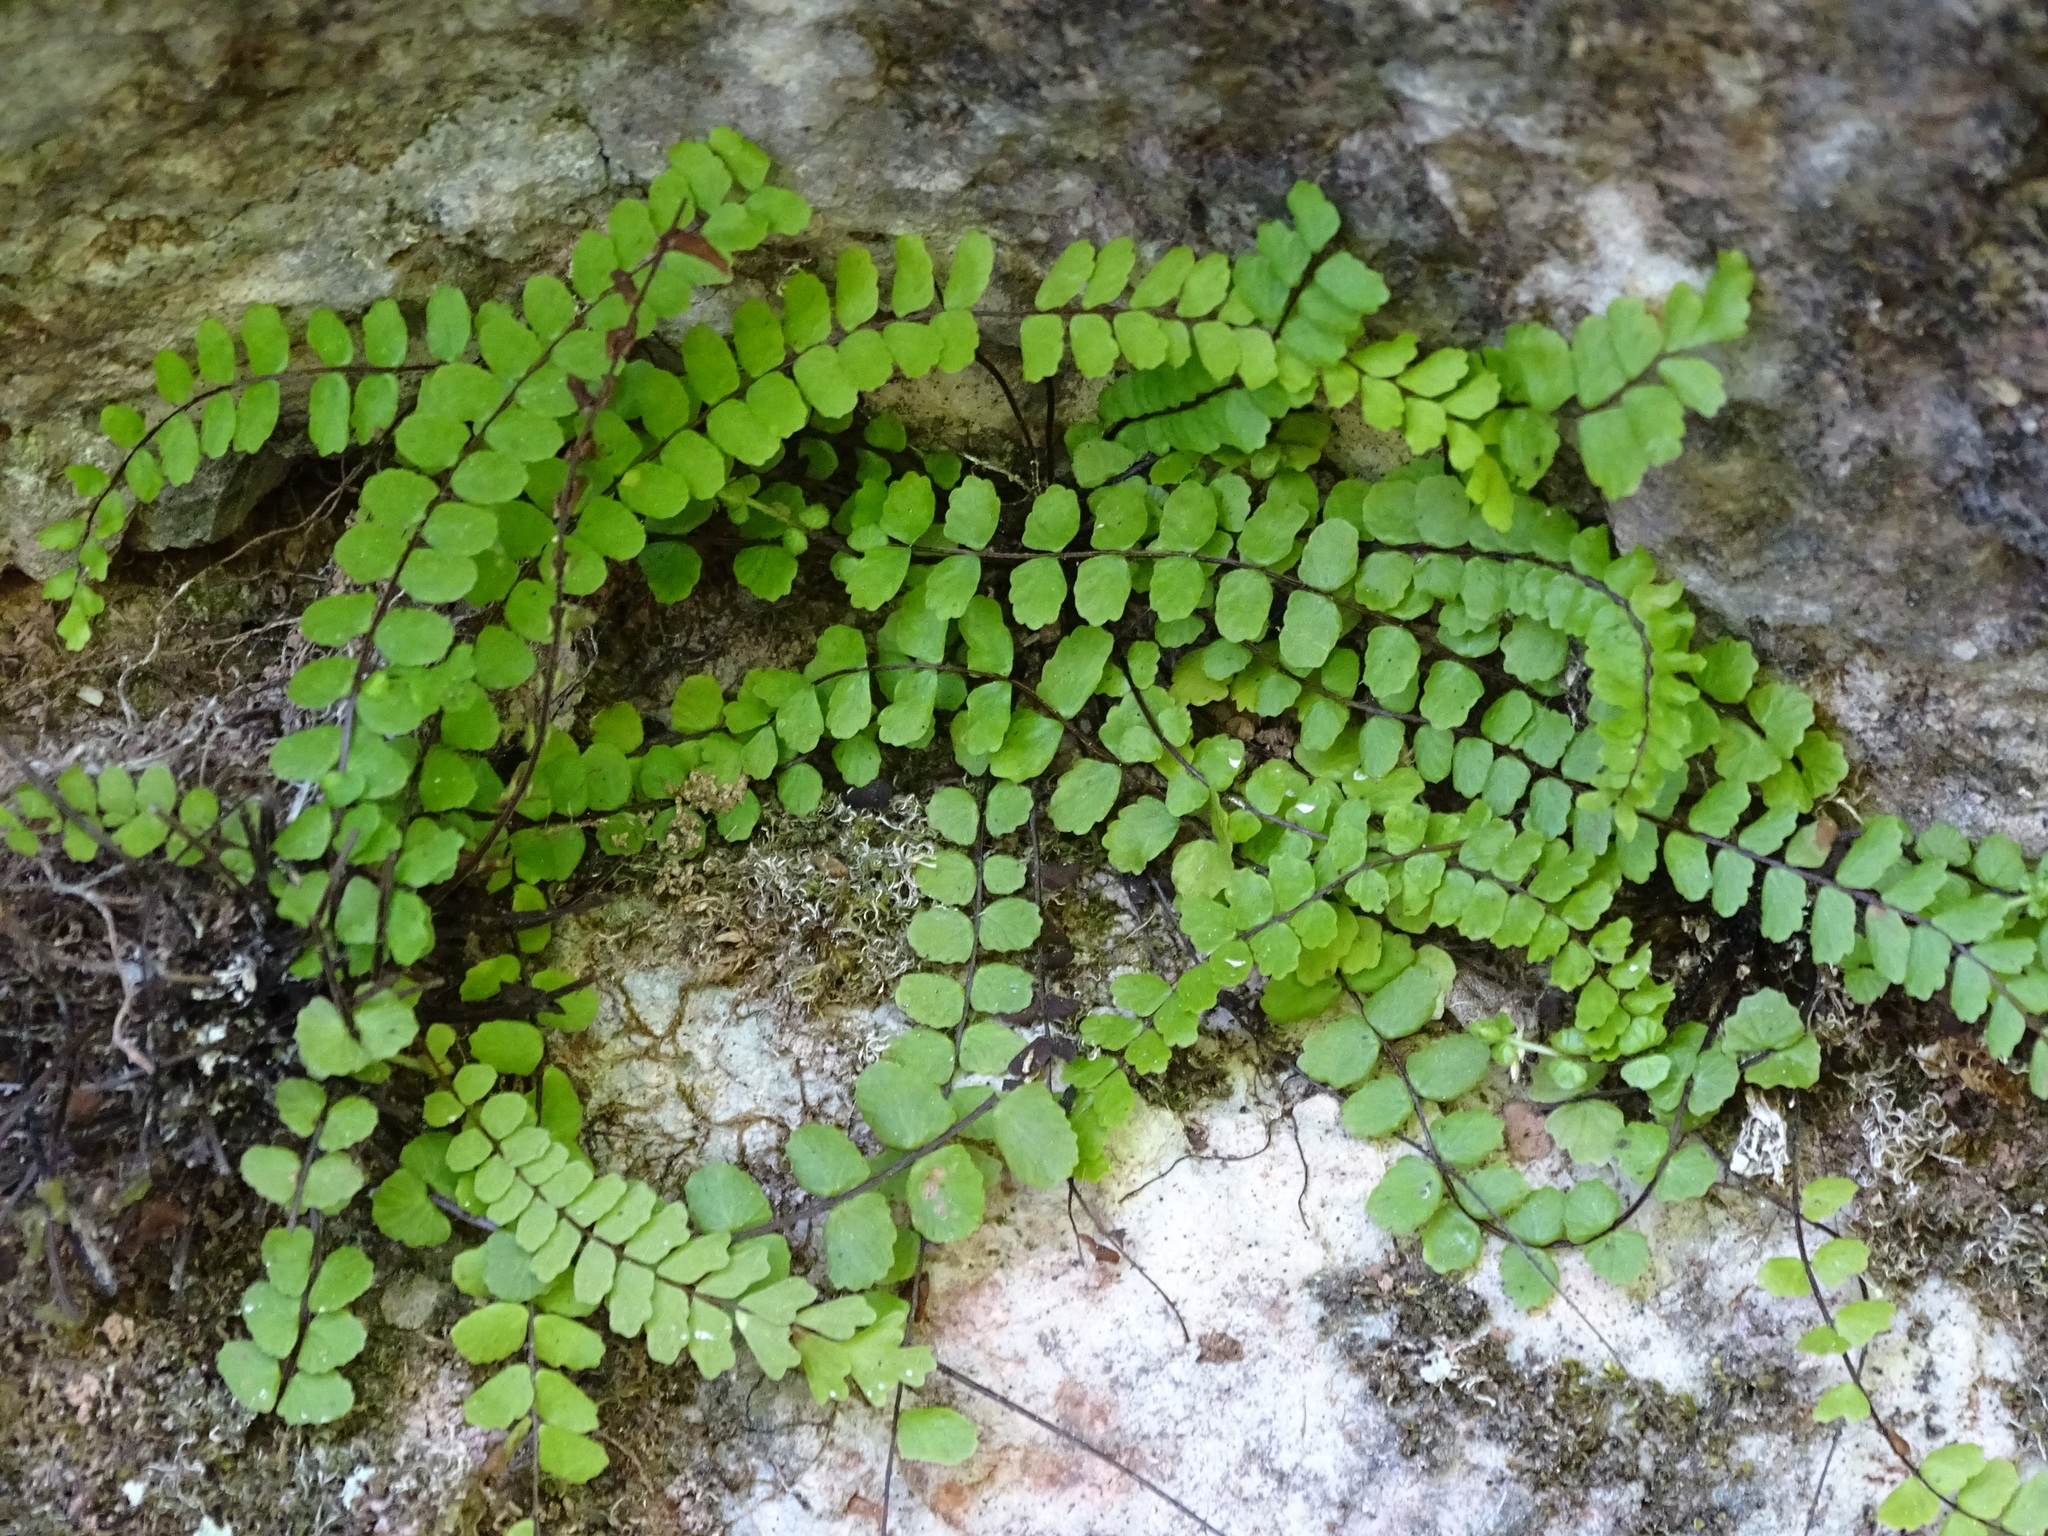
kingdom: Plantae
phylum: Tracheophyta
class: Polypodiopsida
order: Polypodiales
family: Aspleniaceae
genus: Asplenium
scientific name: Asplenium trichomanes
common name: Maidenhair spleenwort
